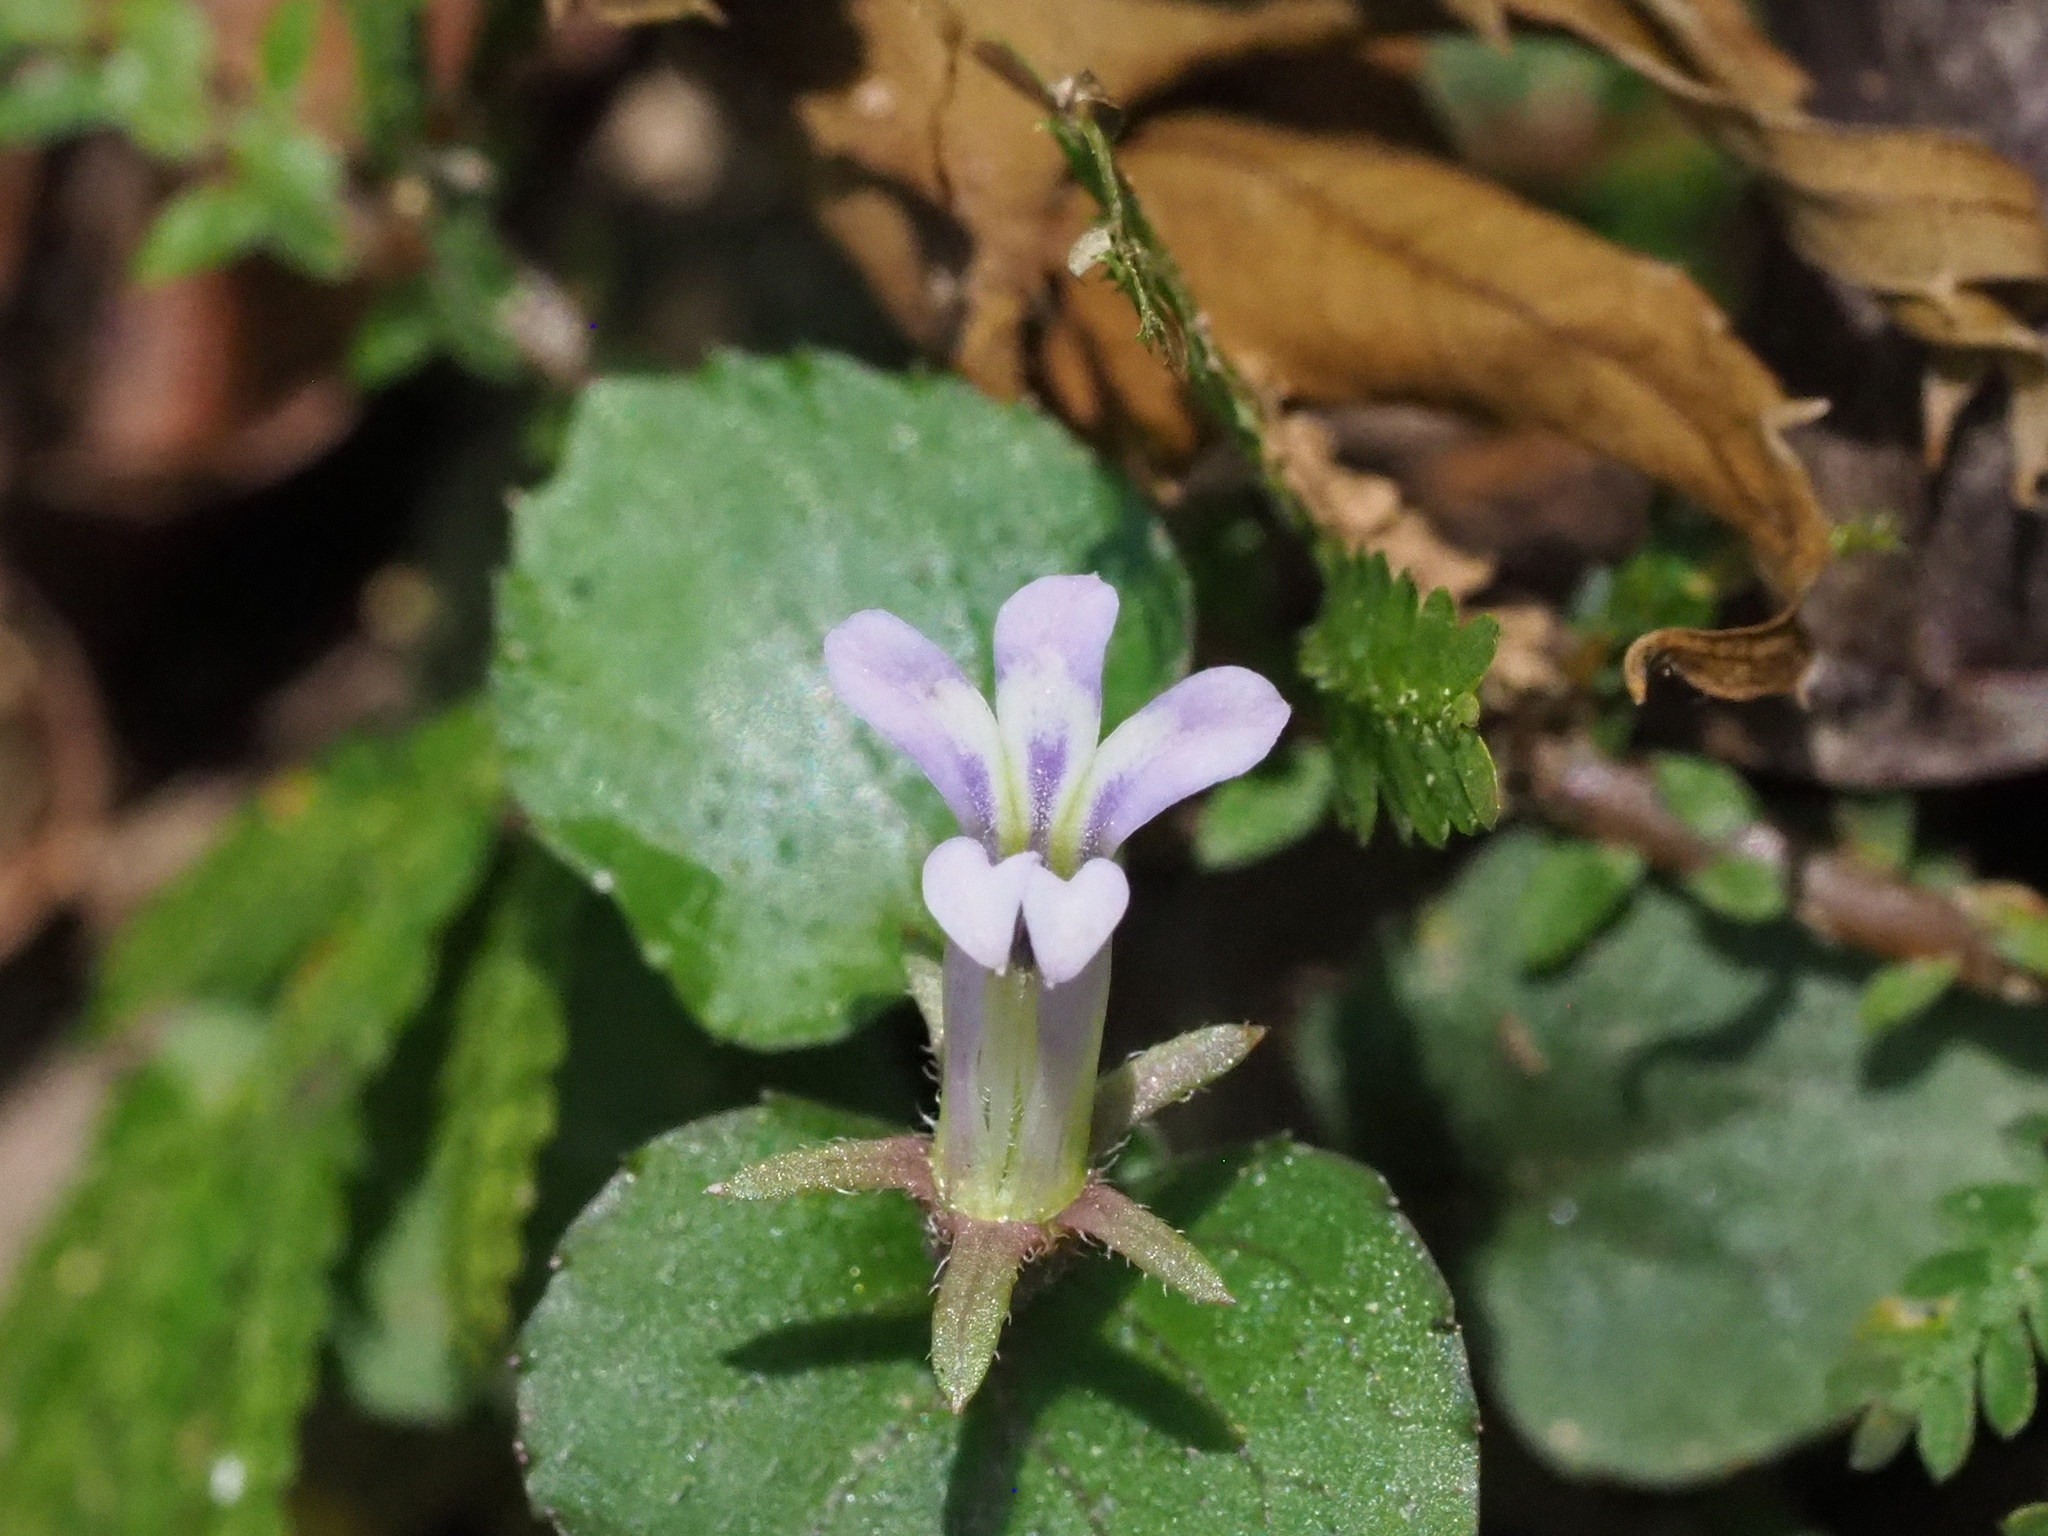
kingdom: Plantae
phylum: Tracheophyta
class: Magnoliopsida
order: Asterales
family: Campanulaceae
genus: Lobelia
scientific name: Lobelia zeylanica
